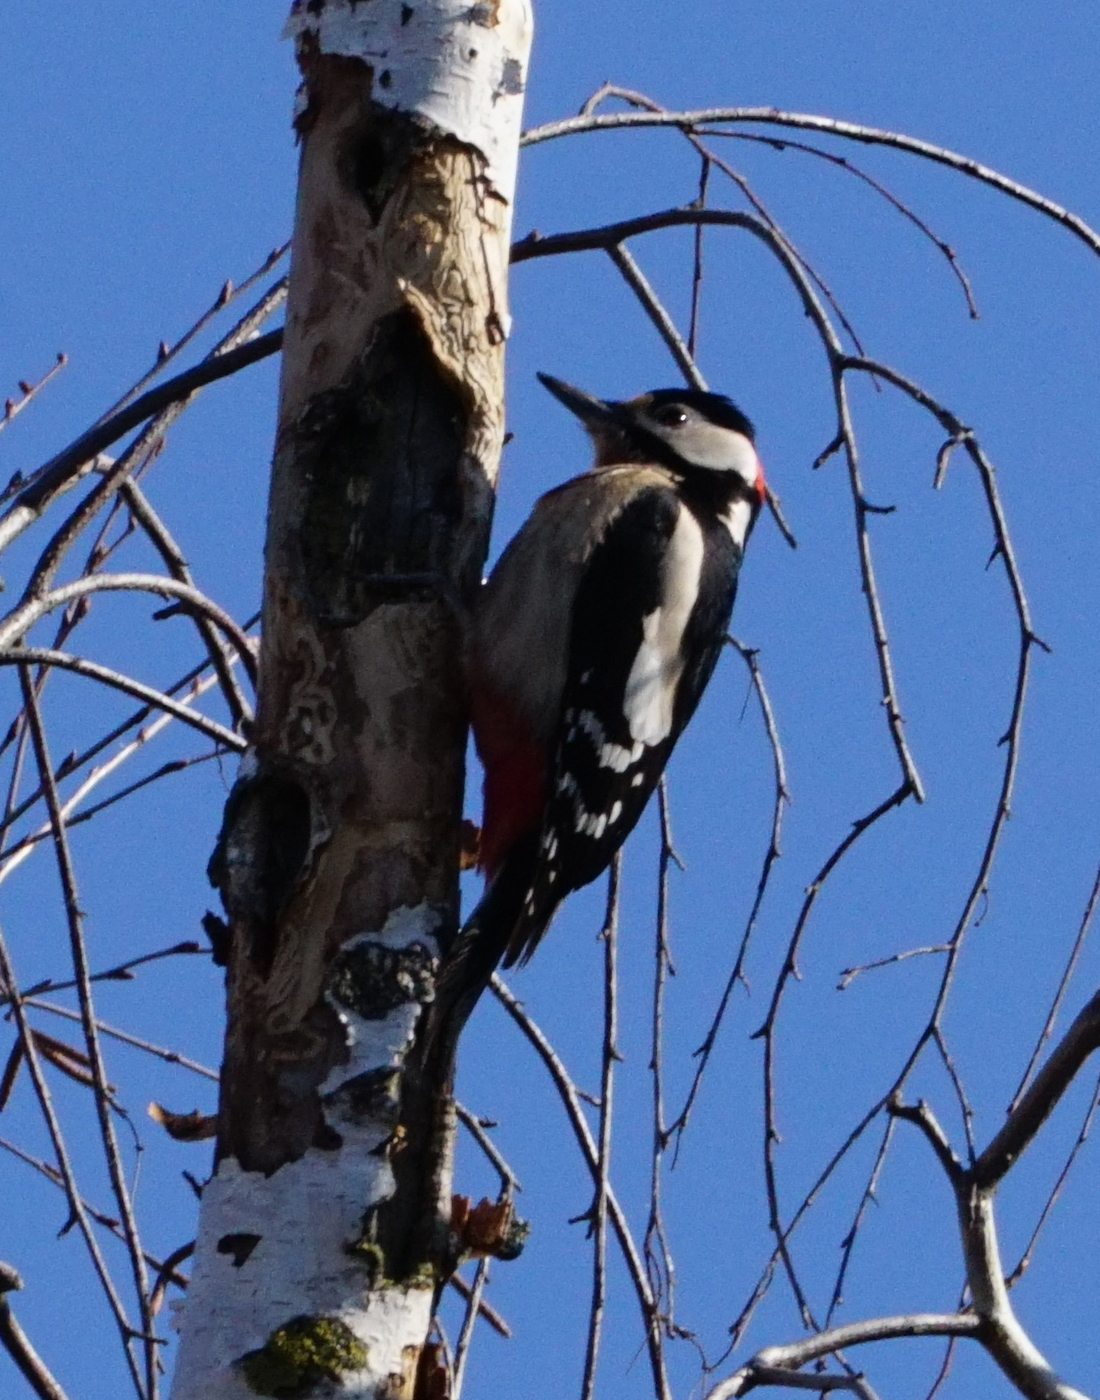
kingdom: Animalia
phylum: Chordata
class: Aves
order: Piciformes
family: Picidae
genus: Dendrocopos
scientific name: Dendrocopos major
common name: Great spotted woodpecker
